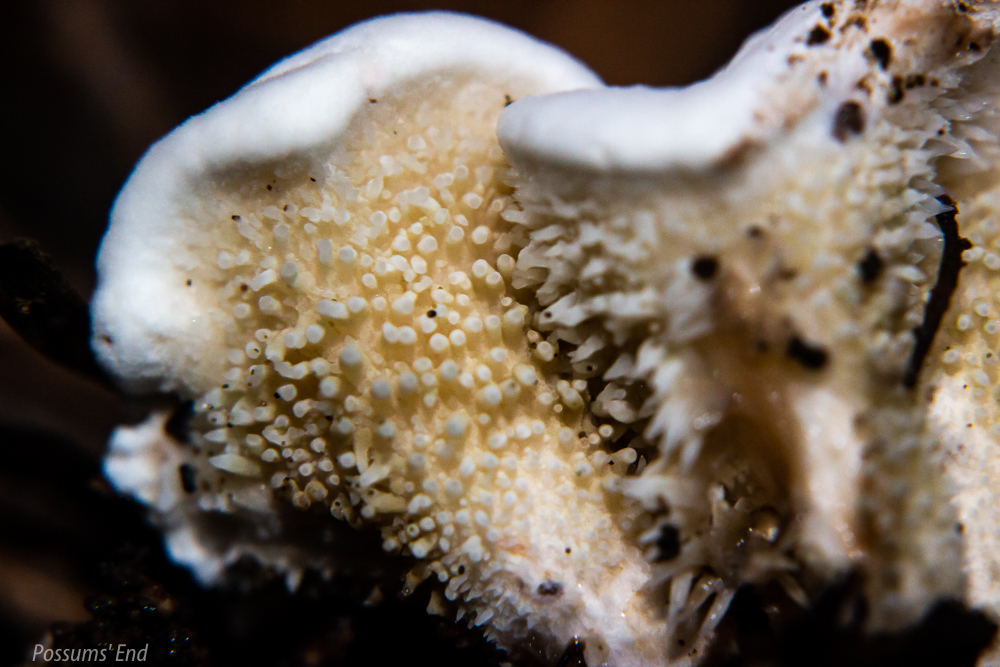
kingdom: Fungi
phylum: Basidiomycota
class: Agaricomycetes
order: Gomphales
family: Clavariadelphaceae
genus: Beenakia
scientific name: Beenakia dacostae
